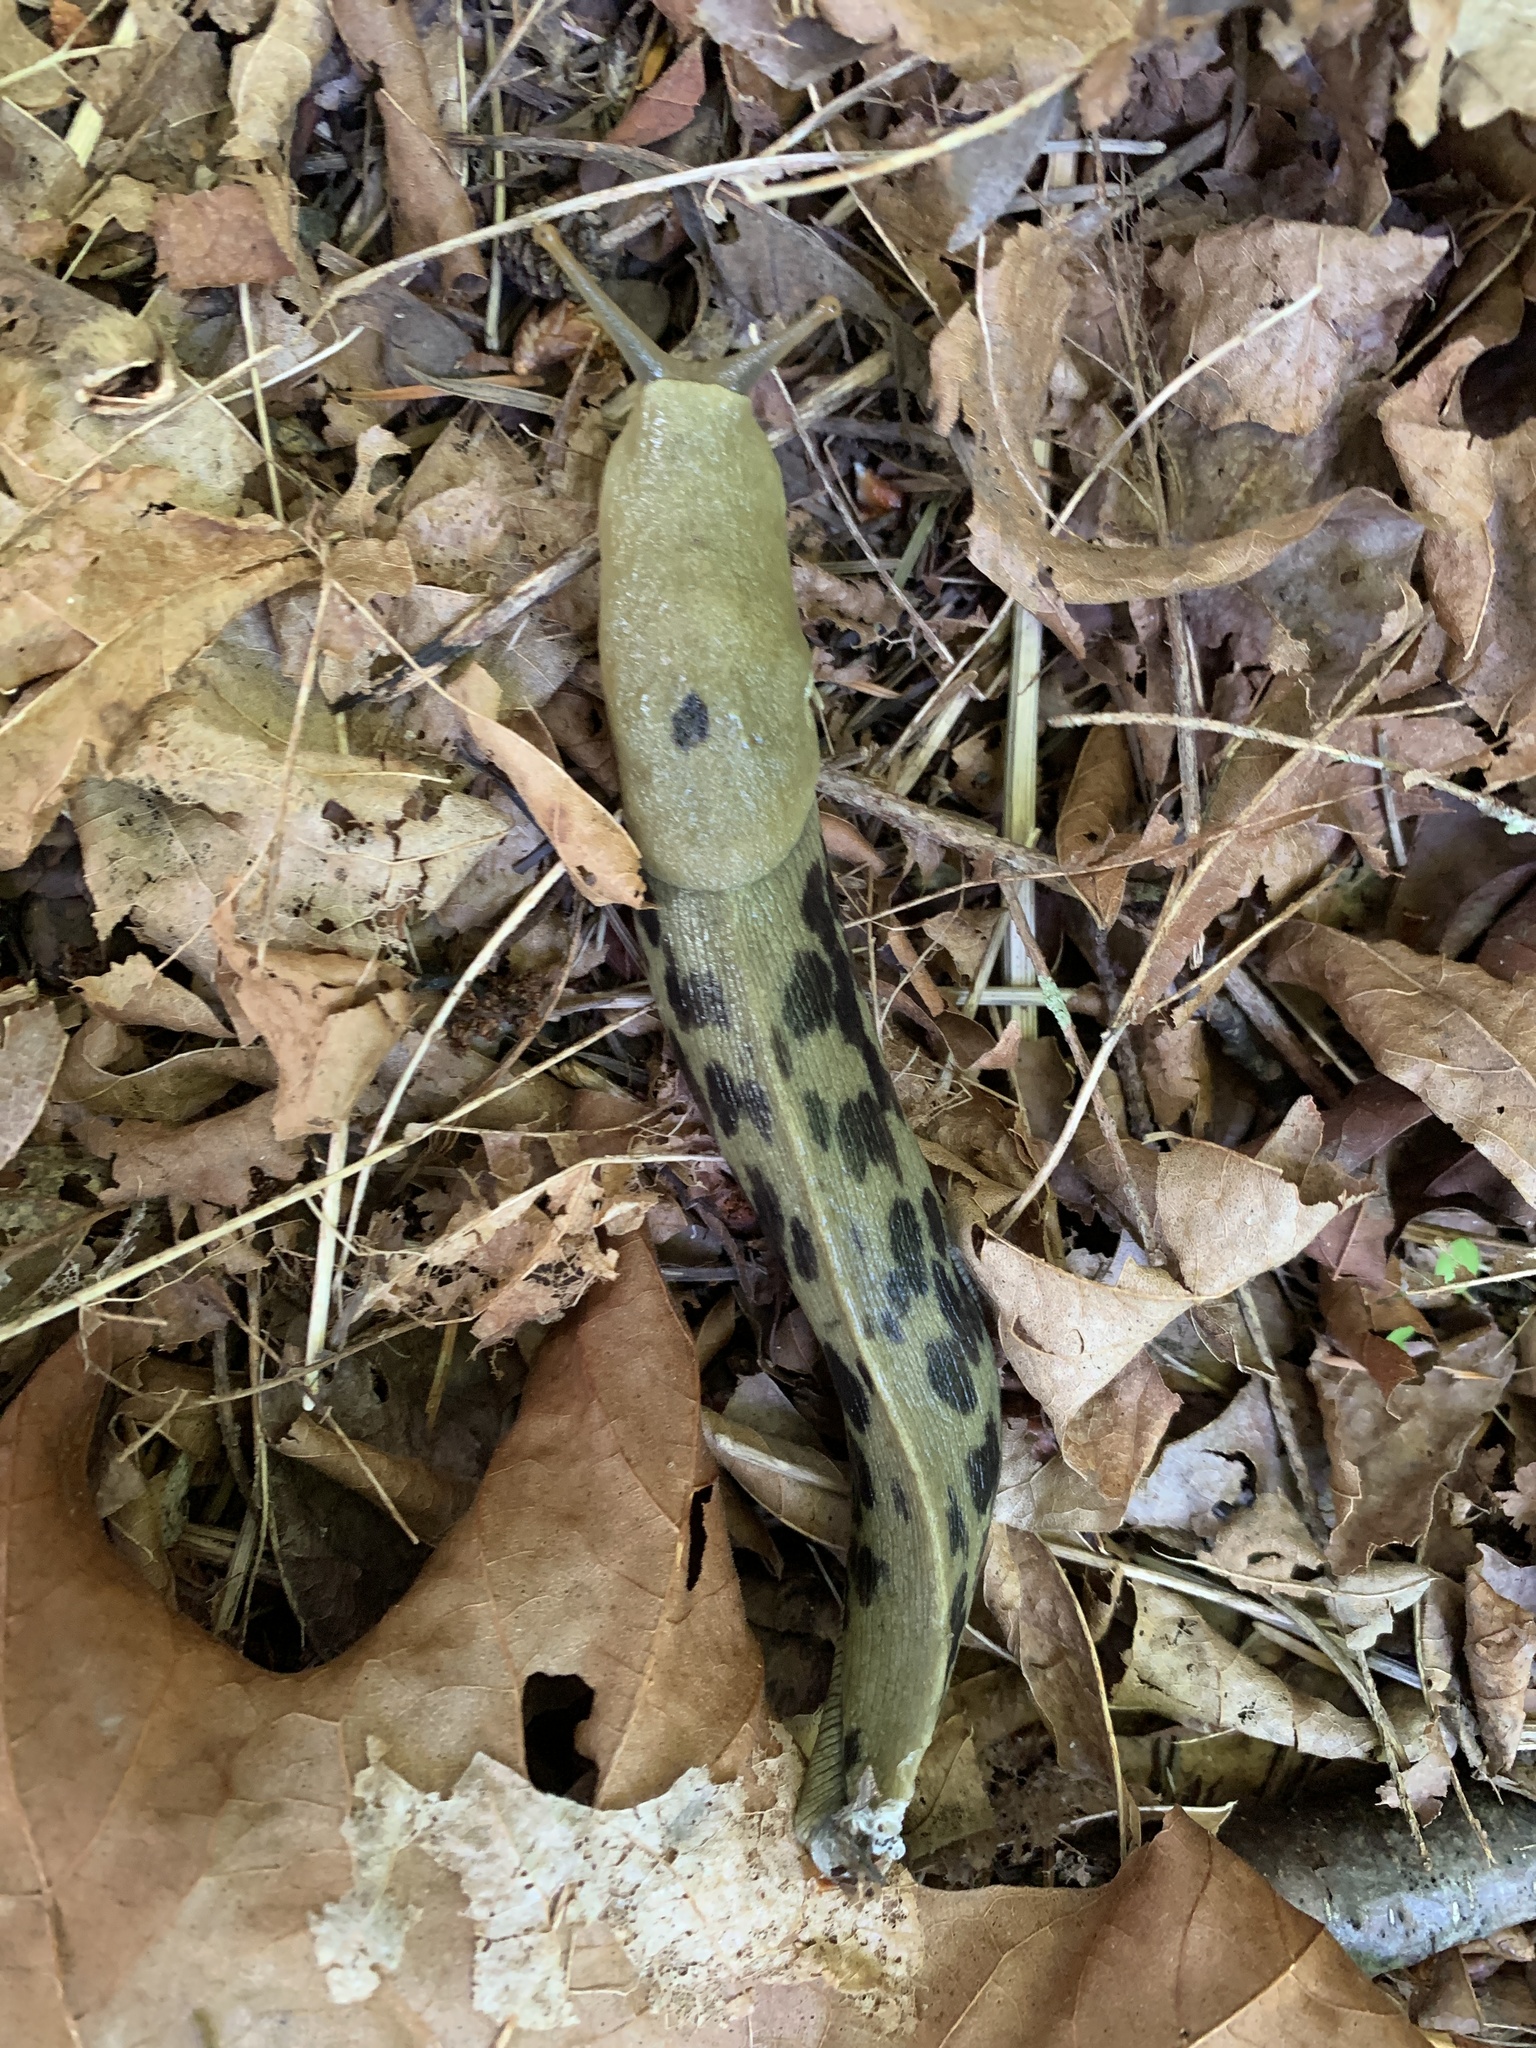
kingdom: Animalia
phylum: Mollusca
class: Gastropoda
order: Stylommatophora
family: Ariolimacidae
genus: Ariolimax
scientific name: Ariolimax columbianus
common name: Pacific banana slug
